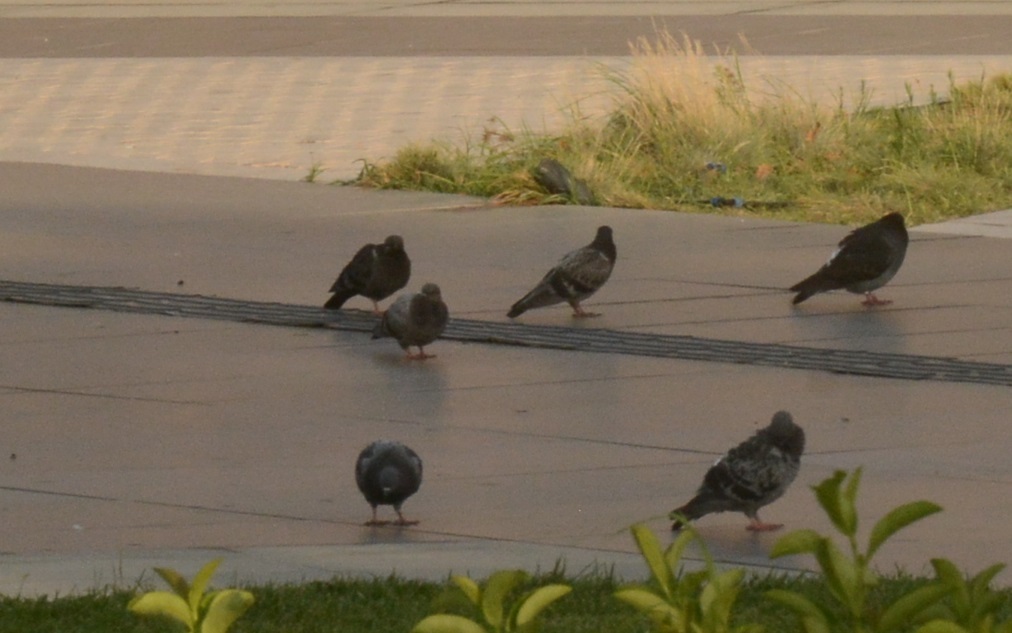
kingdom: Animalia
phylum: Chordata
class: Aves
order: Columbiformes
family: Columbidae
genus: Columba
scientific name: Columba livia
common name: Rock pigeon
